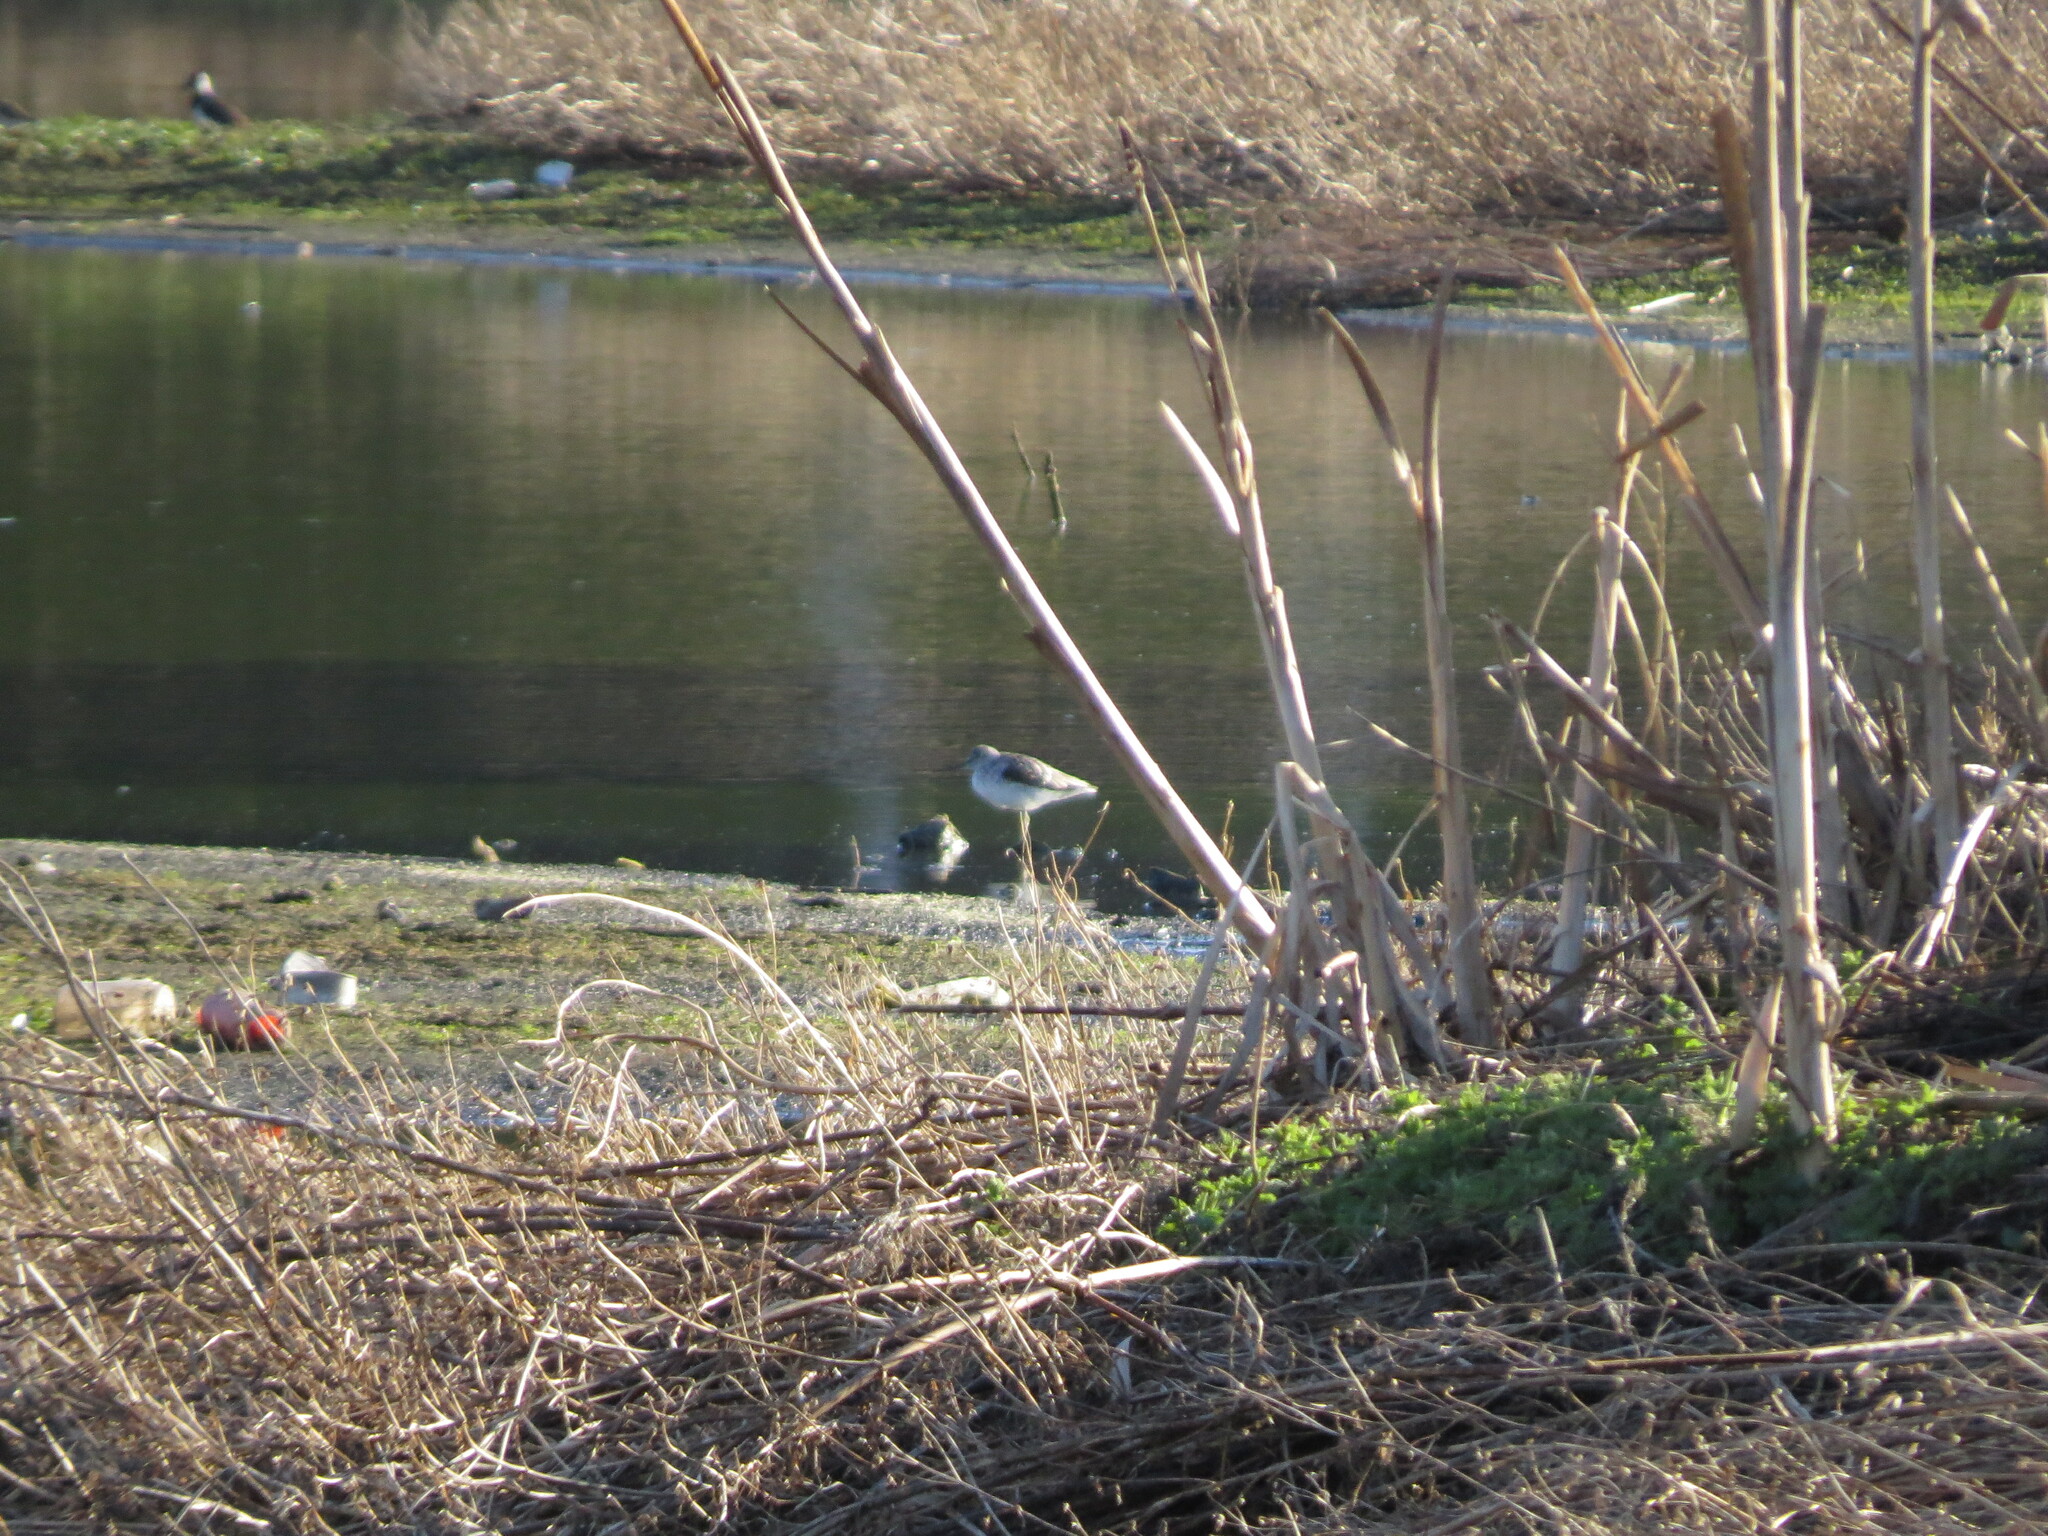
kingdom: Animalia
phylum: Chordata
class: Aves
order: Charadriiformes
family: Scolopacidae
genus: Tringa
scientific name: Tringa nebularia
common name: Common greenshank
